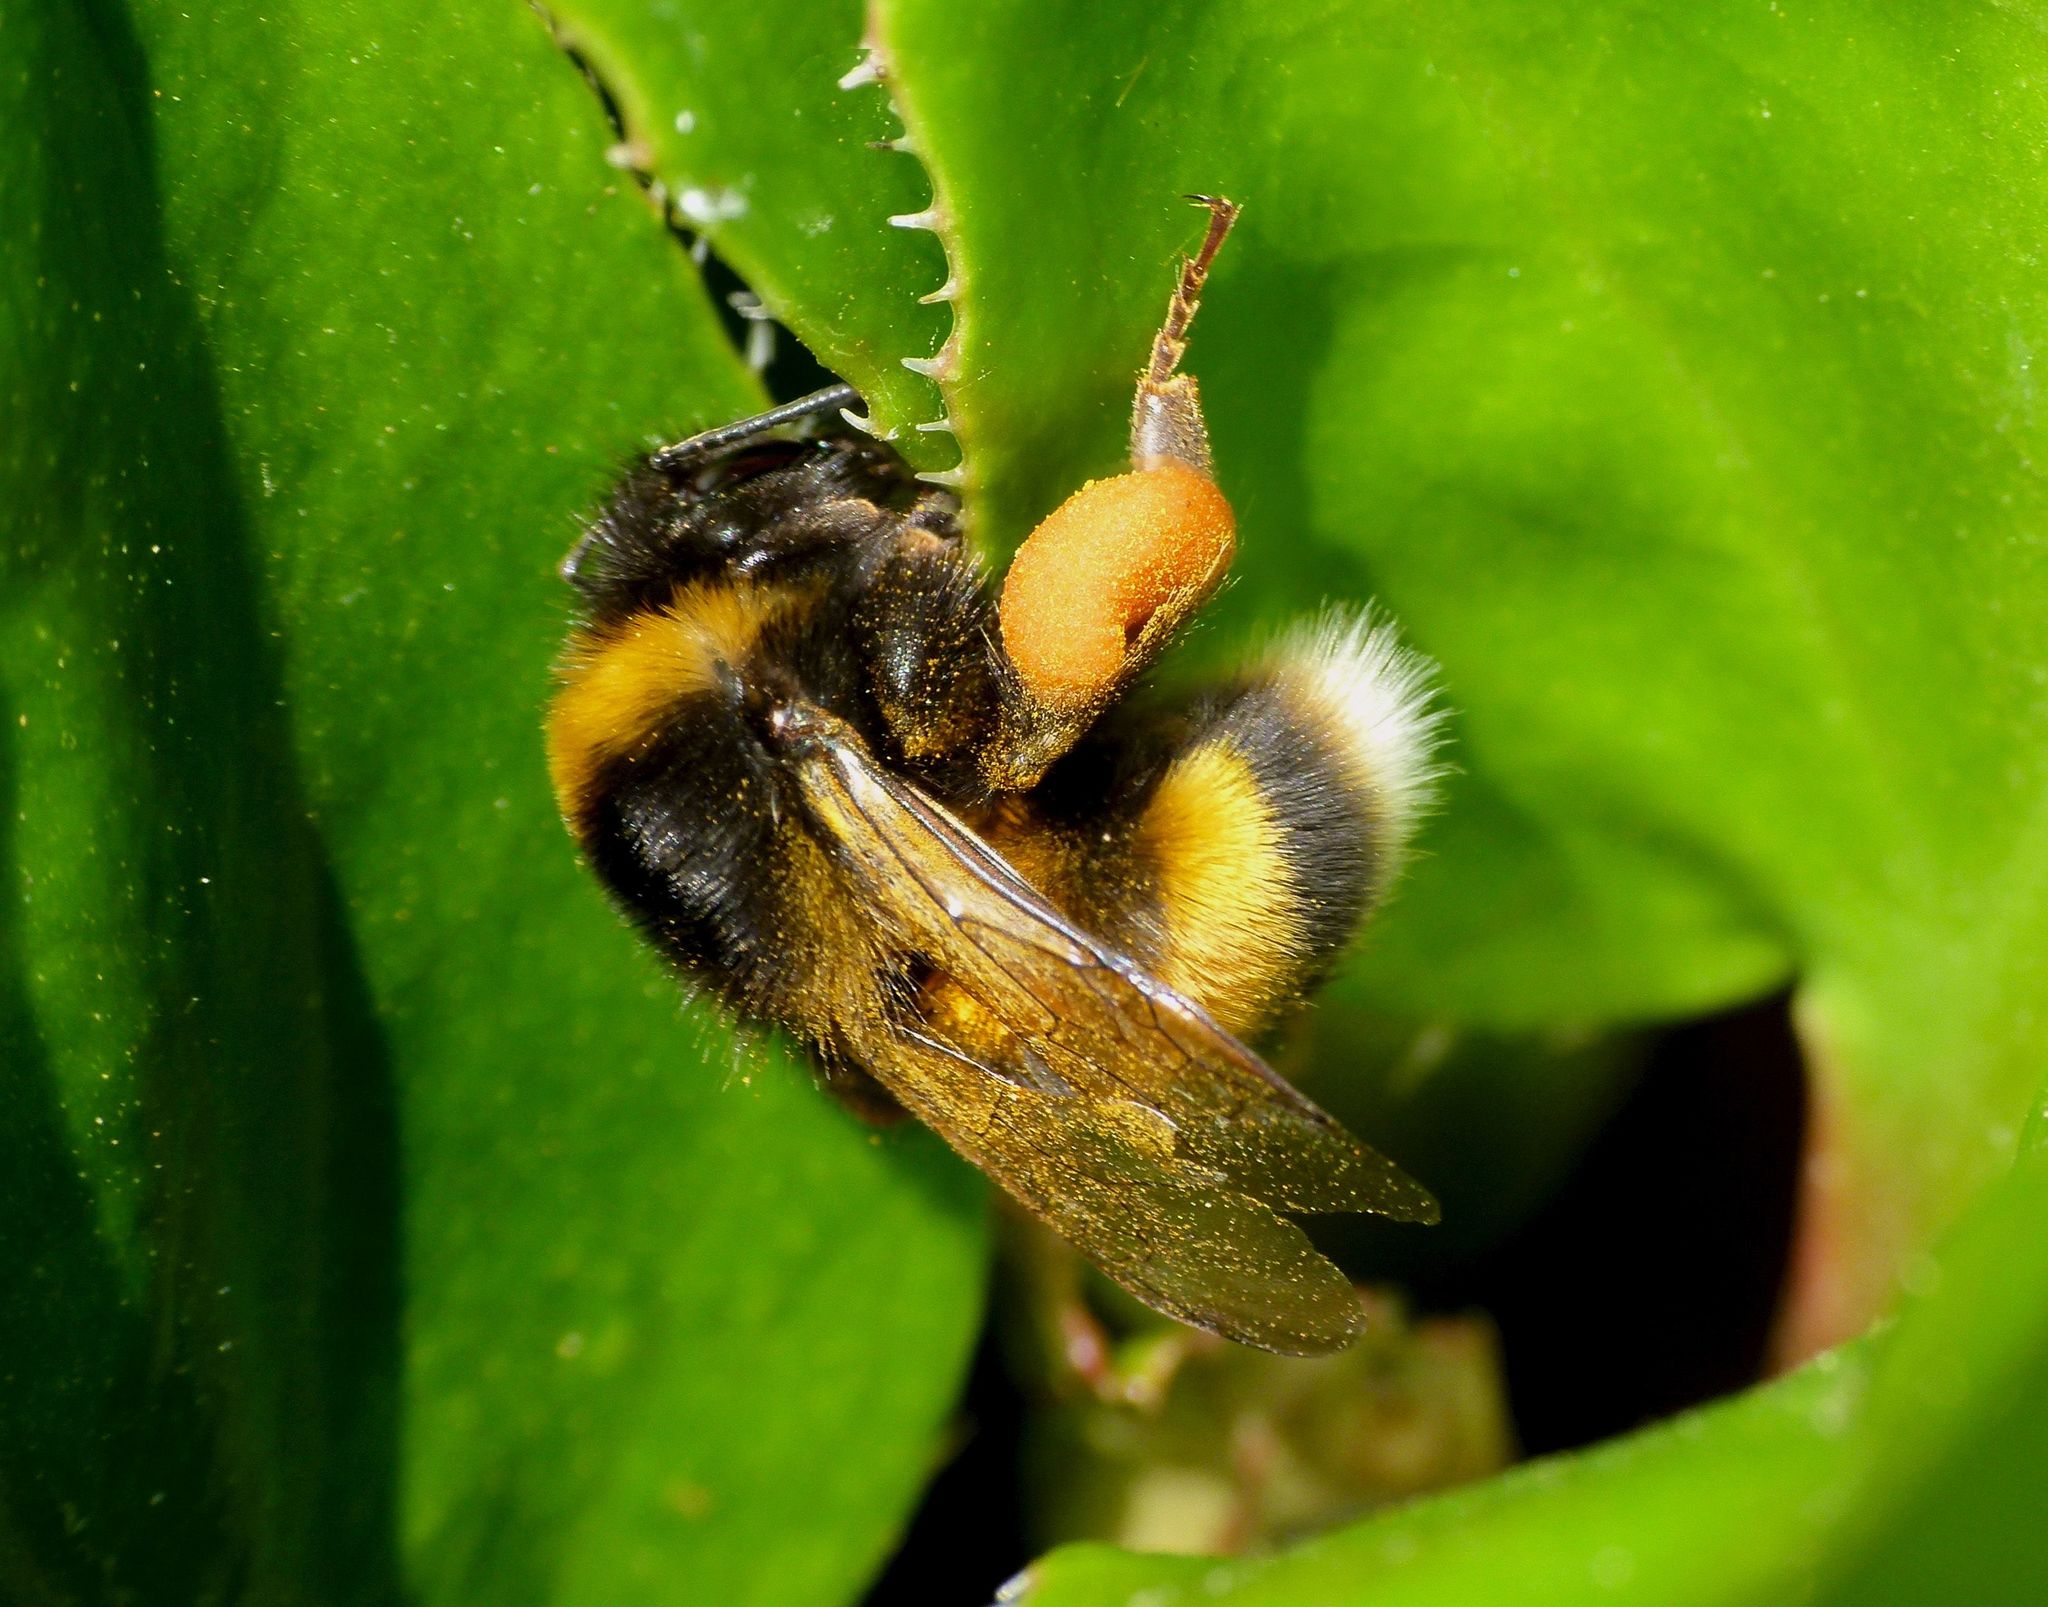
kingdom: Animalia
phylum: Arthropoda
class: Insecta
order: Hymenoptera
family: Apidae
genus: Bombus
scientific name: Bombus terrestris
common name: Buff-tailed bumblebee
